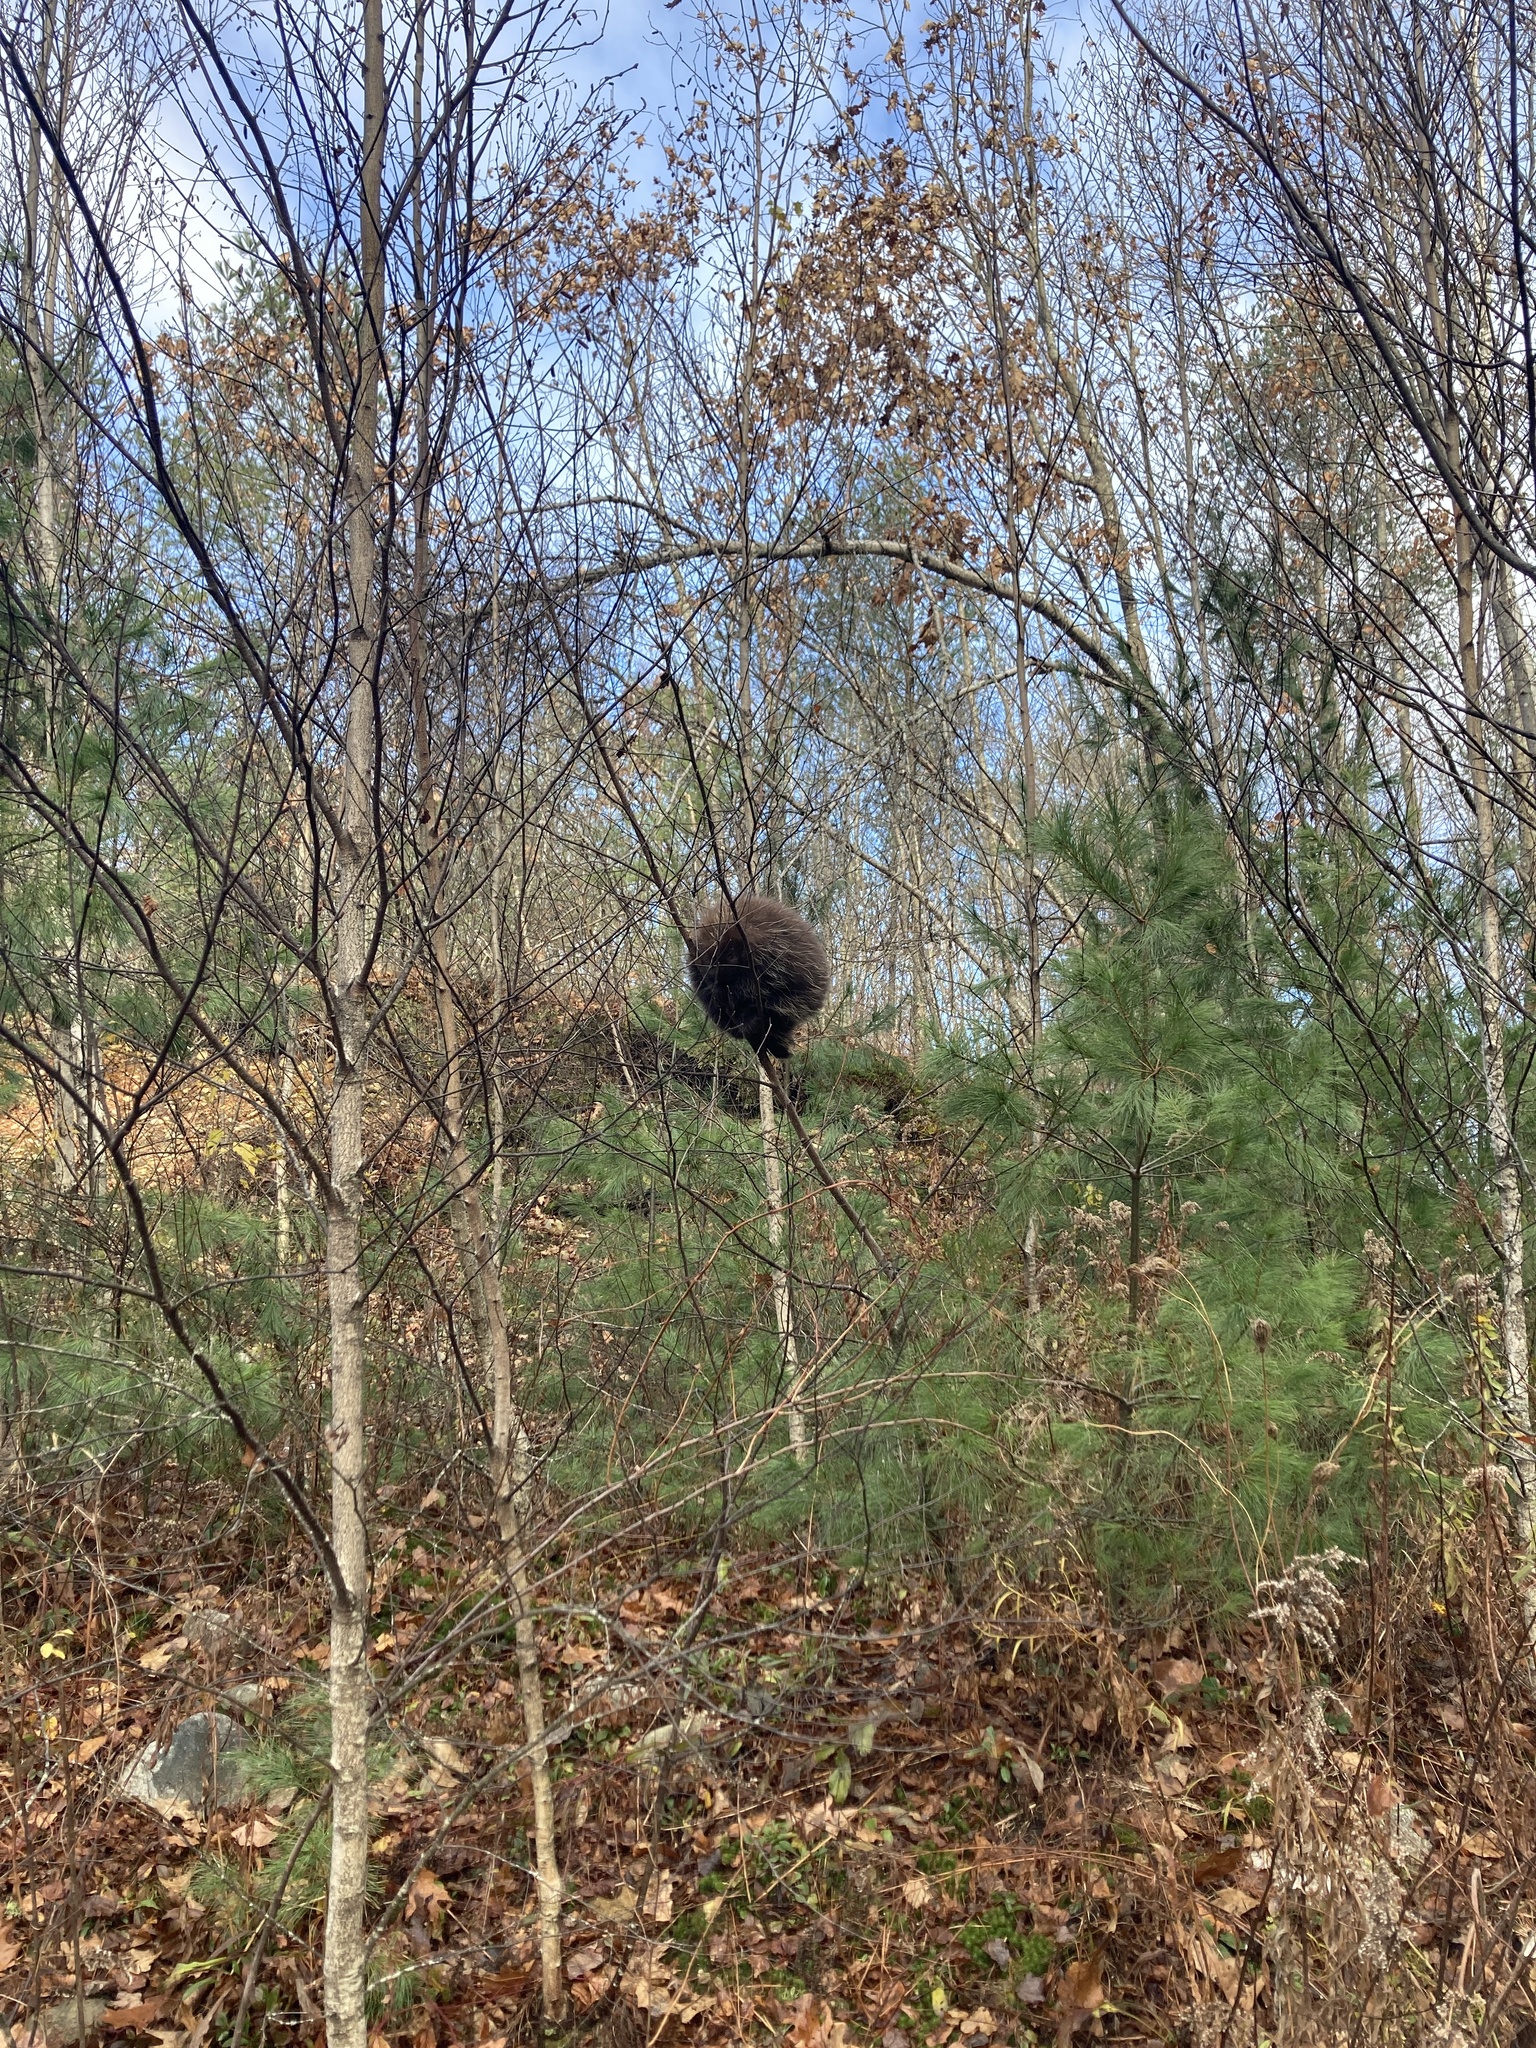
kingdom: Animalia
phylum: Chordata
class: Mammalia
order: Rodentia
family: Erethizontidae
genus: Erethizon
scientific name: Erethizon dorsatus
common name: North american porcupine
